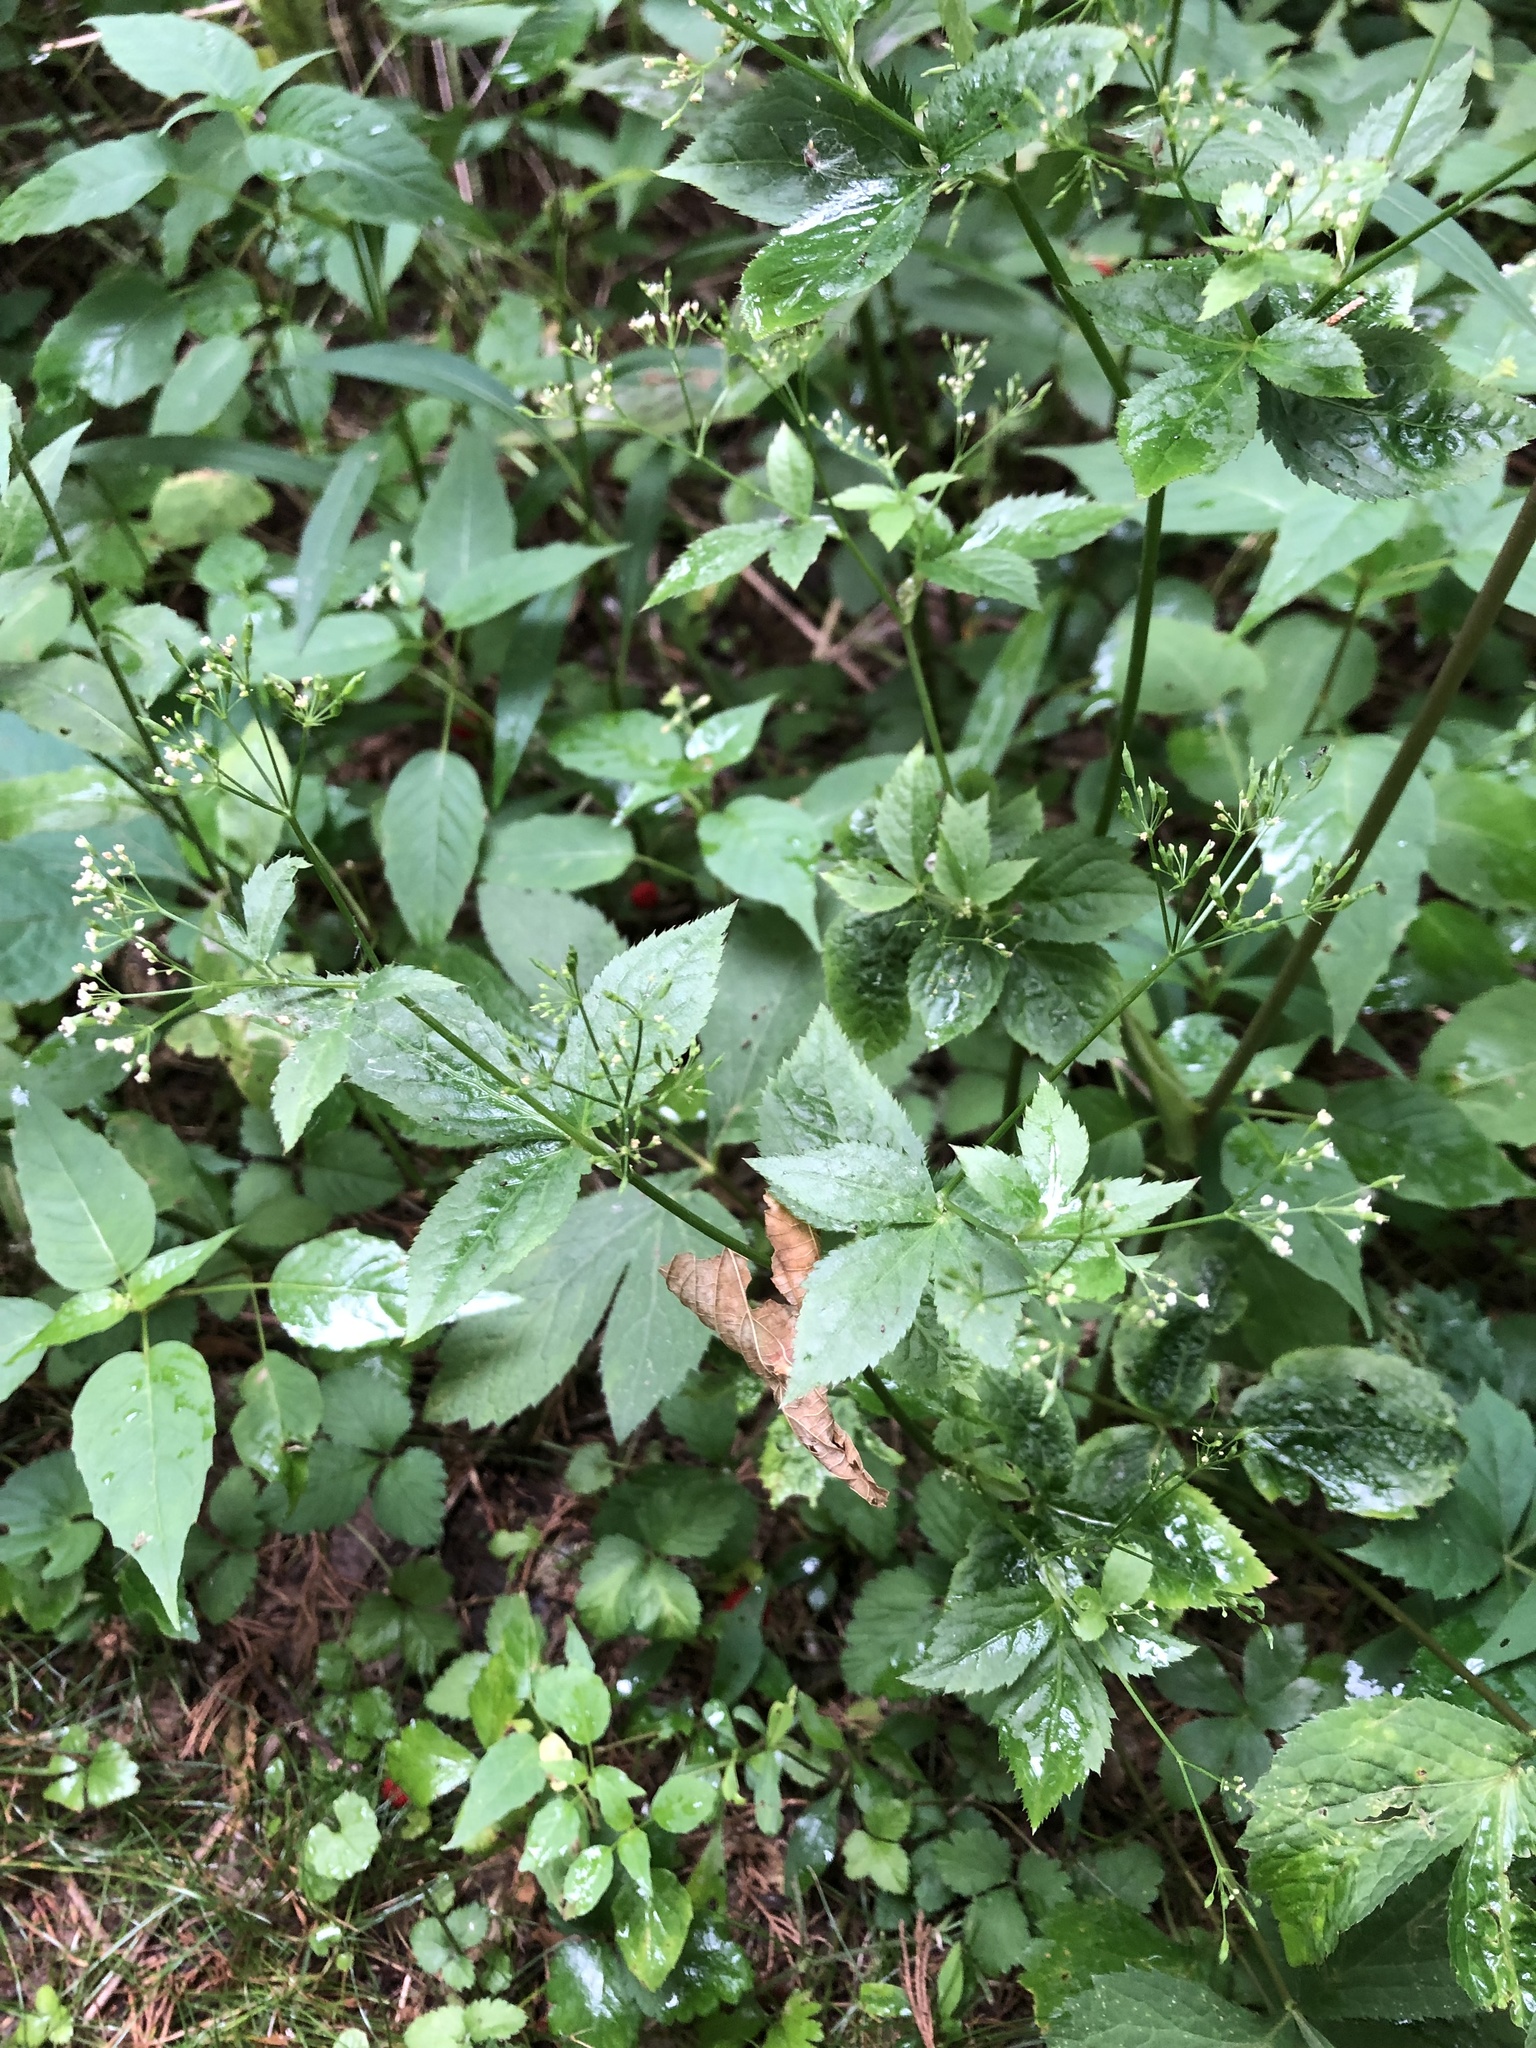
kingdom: Plantae
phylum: Tracheophyta
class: Magnoliopsida
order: Apiales
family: Apiaceae
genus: Cryptotaenia
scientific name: Cryptotaenia canadensis
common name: Honewort
